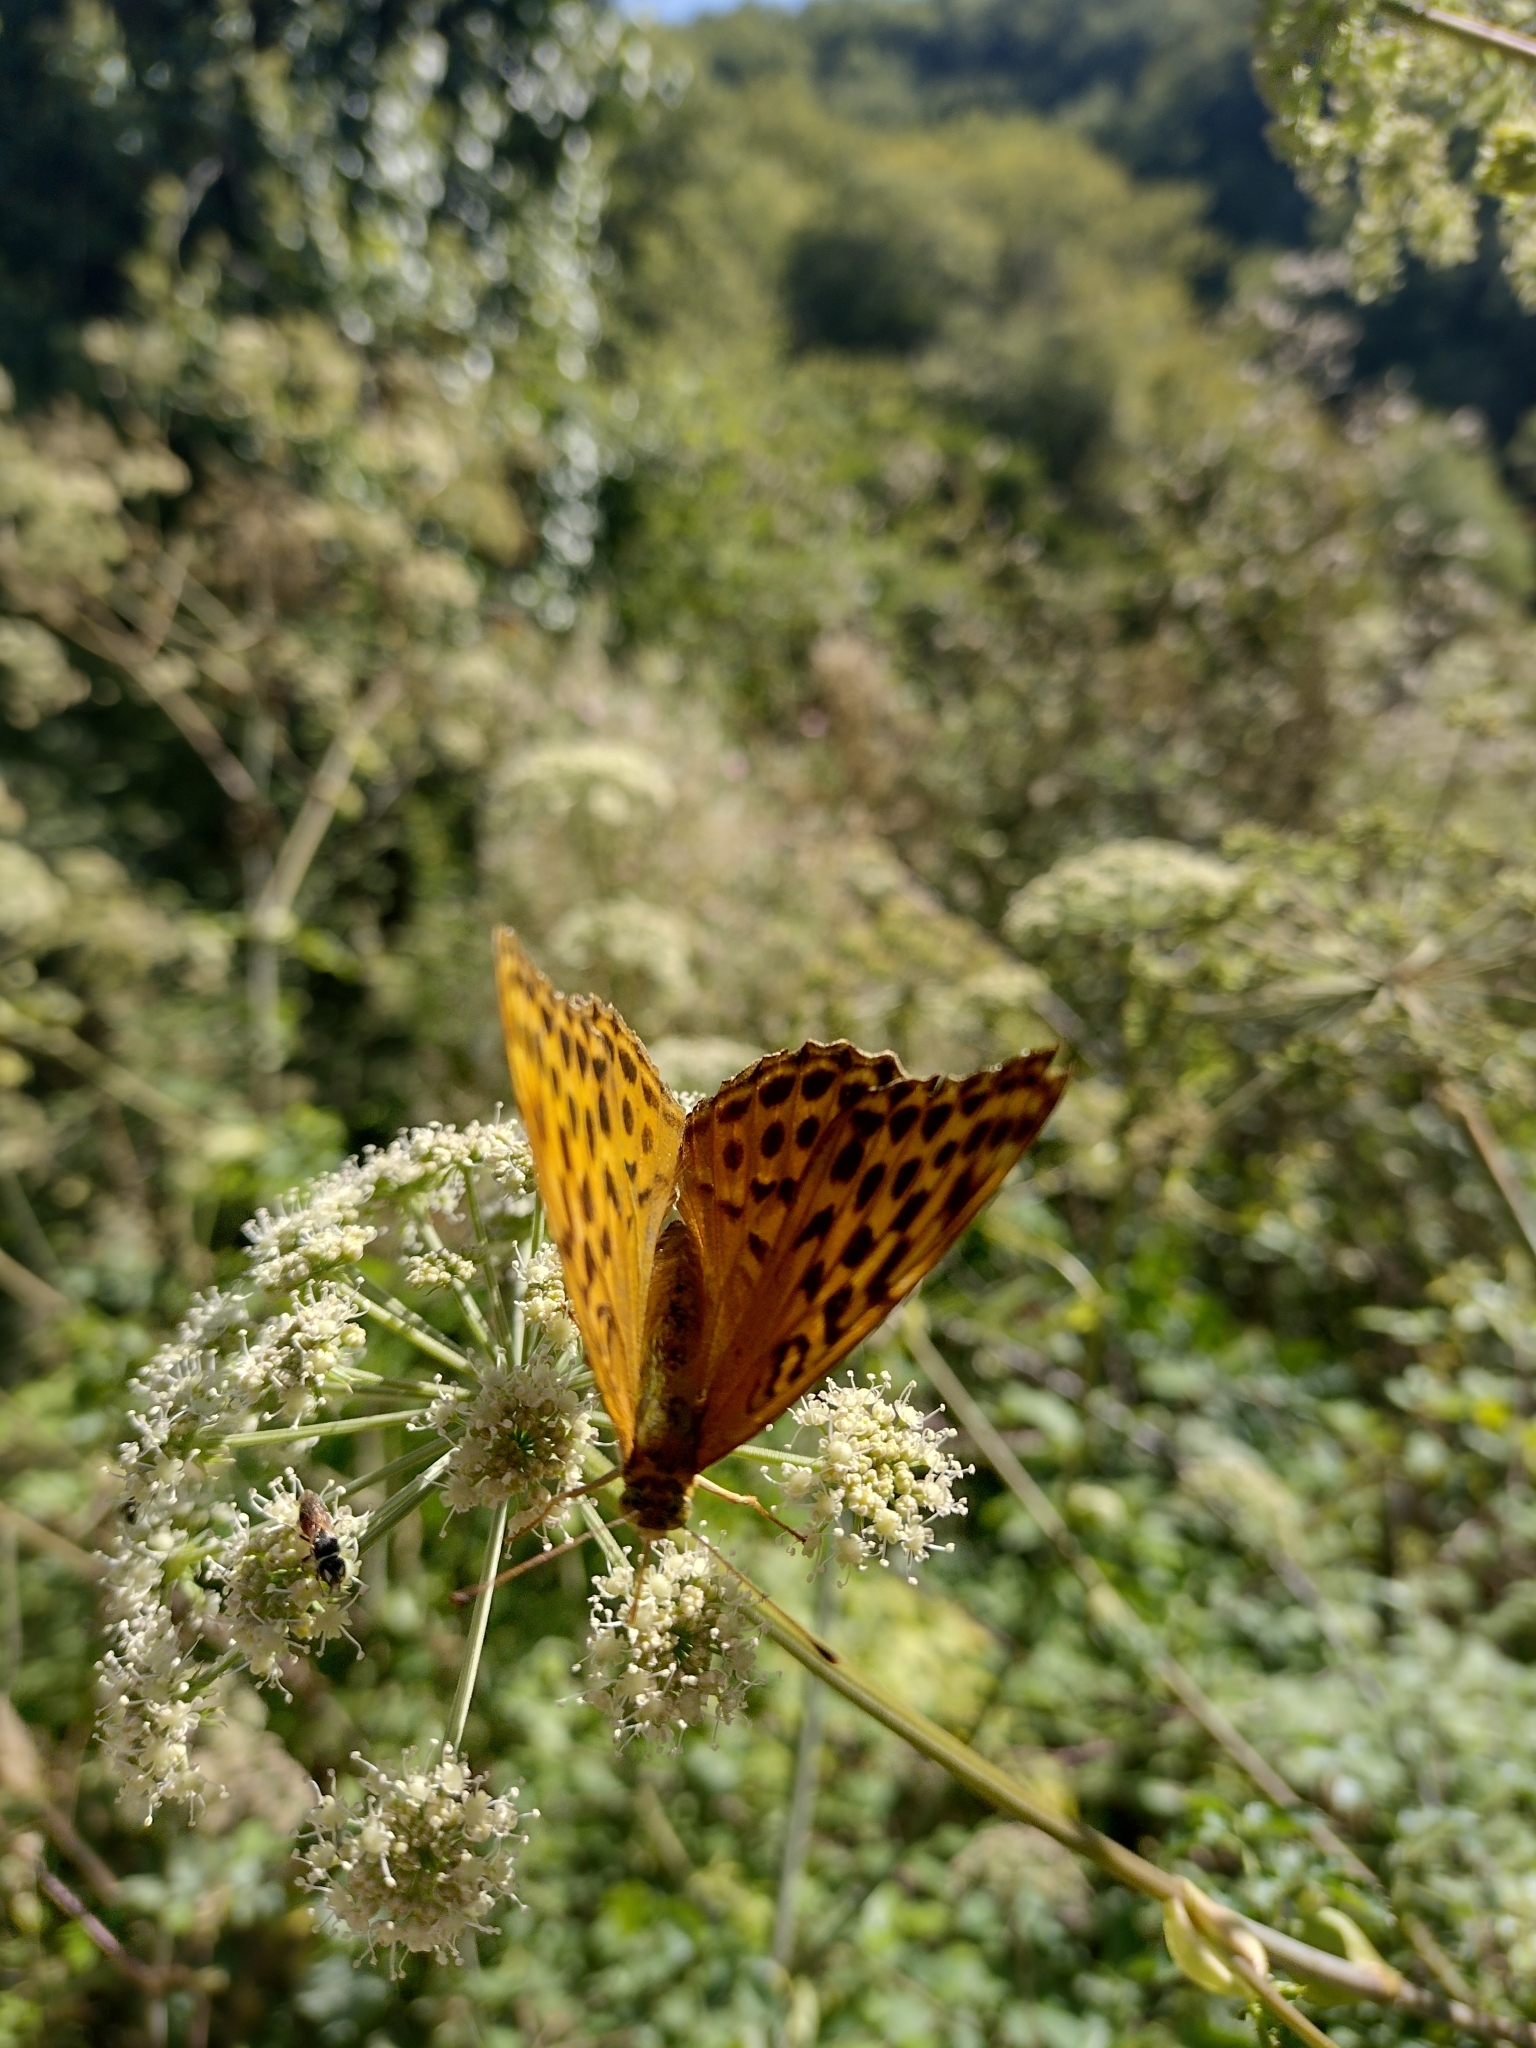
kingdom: Animalia
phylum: Arthropoda
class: Insecta
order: Lepidoptera
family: Nymphalidae
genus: Argynnis
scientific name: Argynnis paphia
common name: Silver-washed fritillary
